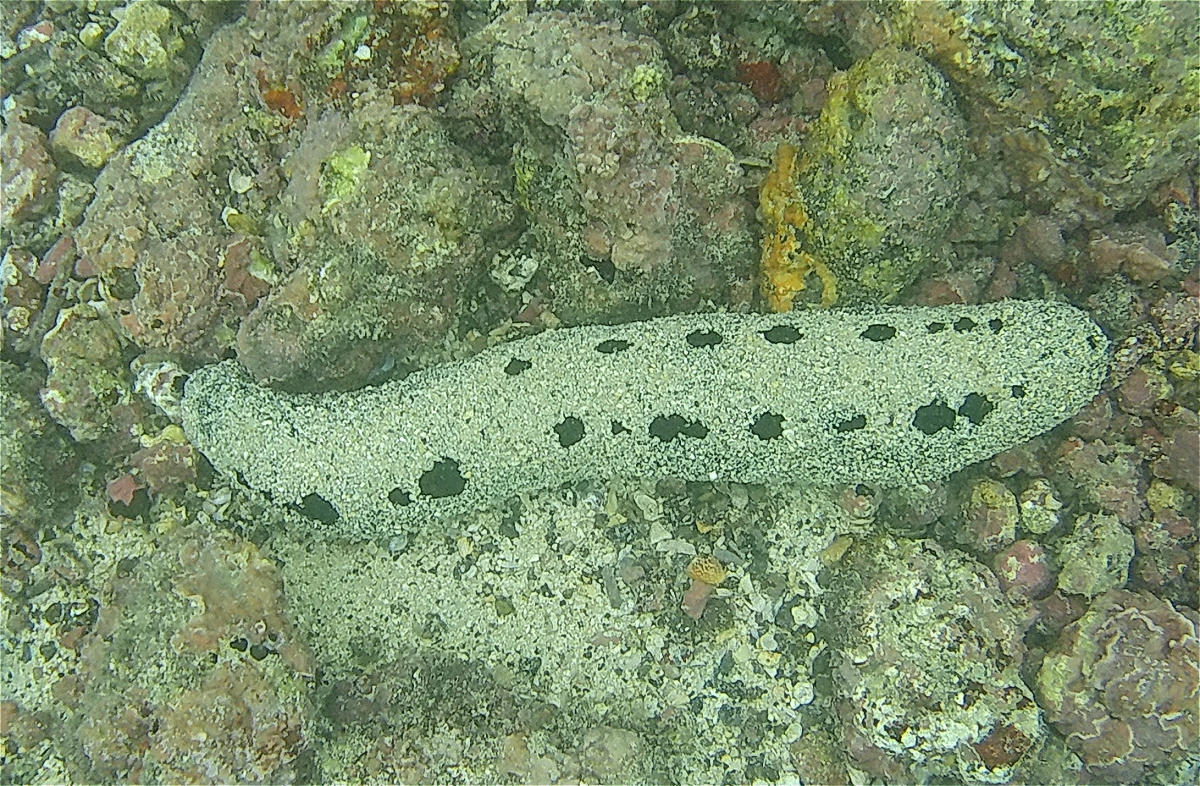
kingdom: Animalia
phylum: Echinodermata
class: Holothuroidea
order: Holothuriida
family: Holothuriidae
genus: Holothuria
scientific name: Holothuria atra
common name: Lollyfish
